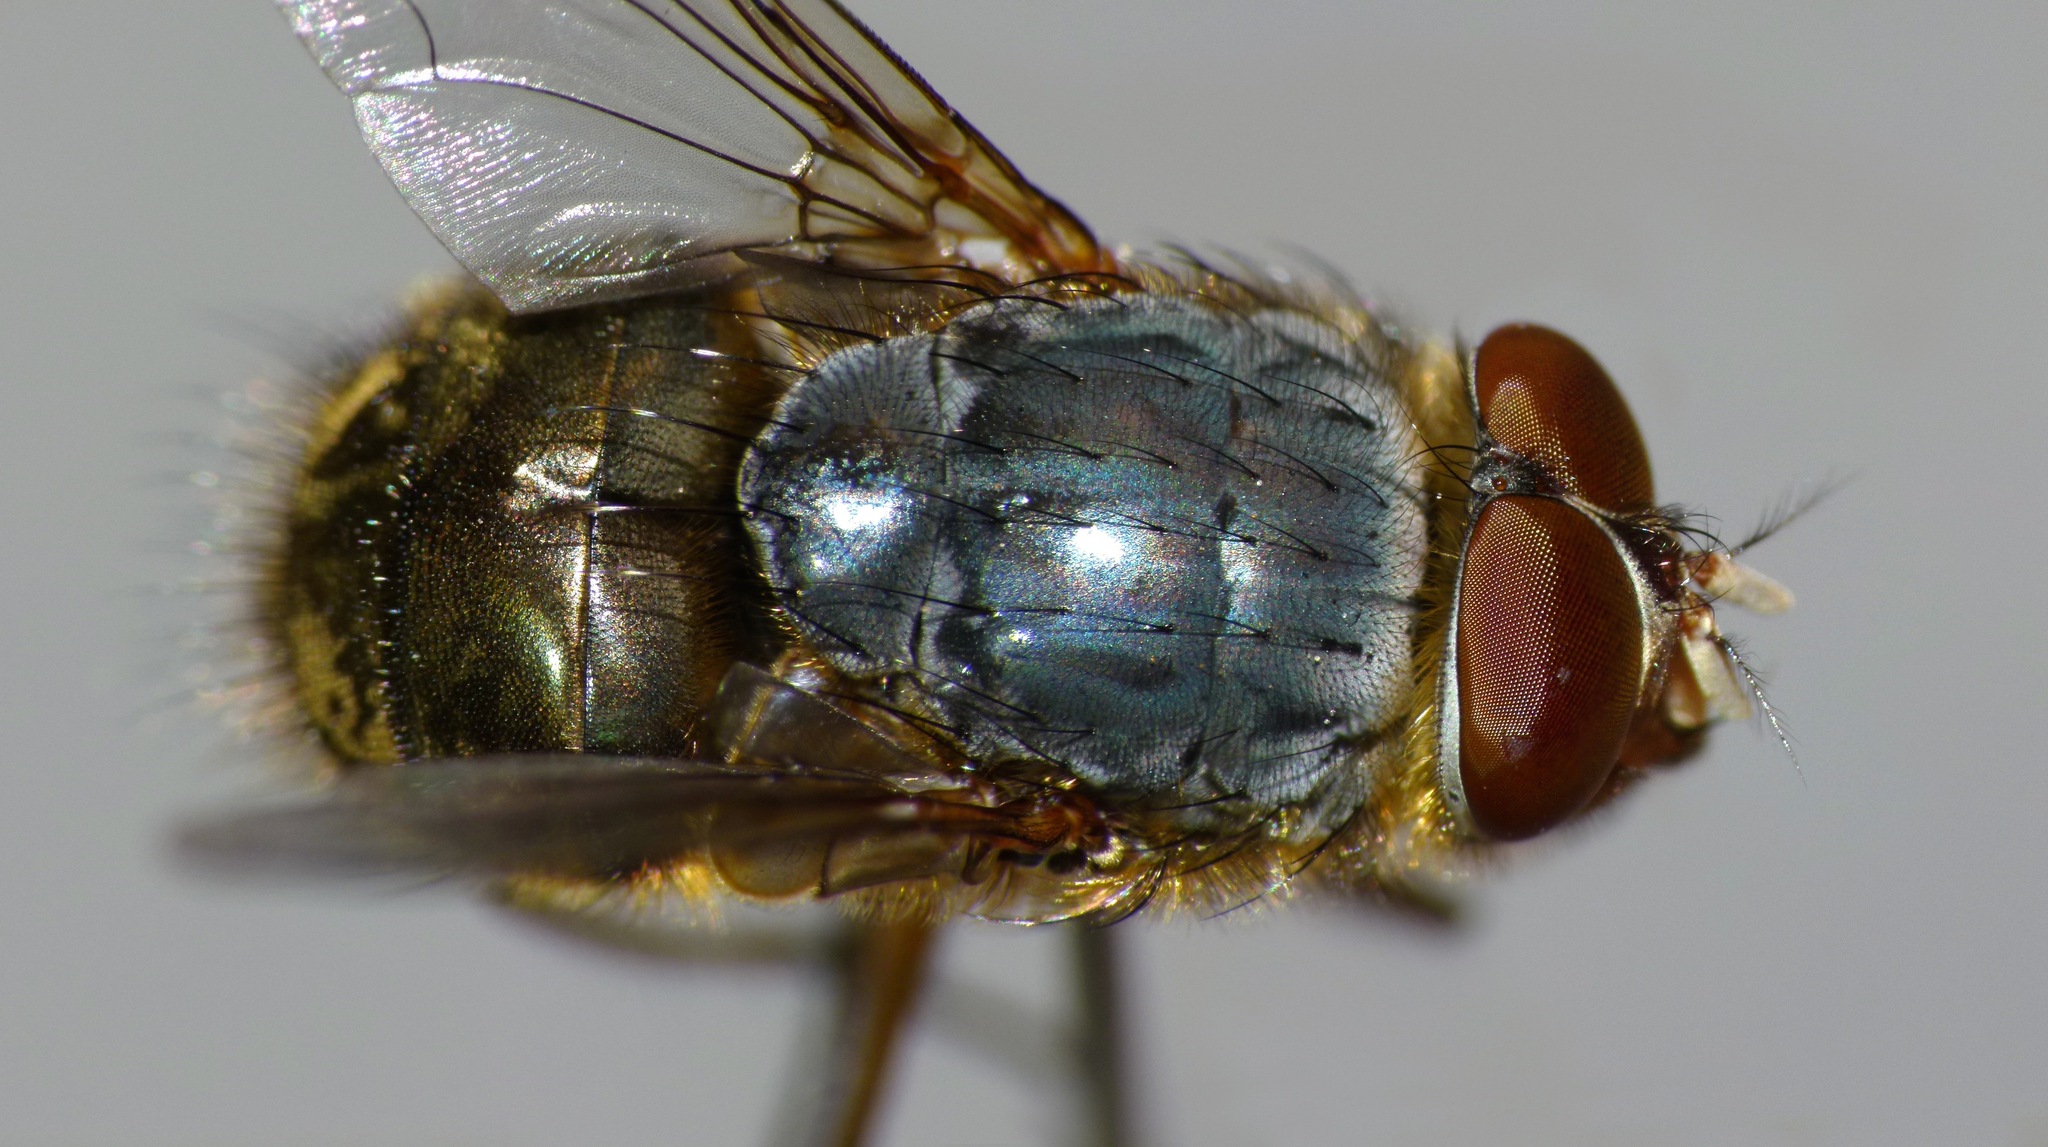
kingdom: Animalia
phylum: Arthropoda
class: Insecta
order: Diptera
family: Calliphoridae
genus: Calliphora
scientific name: Calliphora stygia
